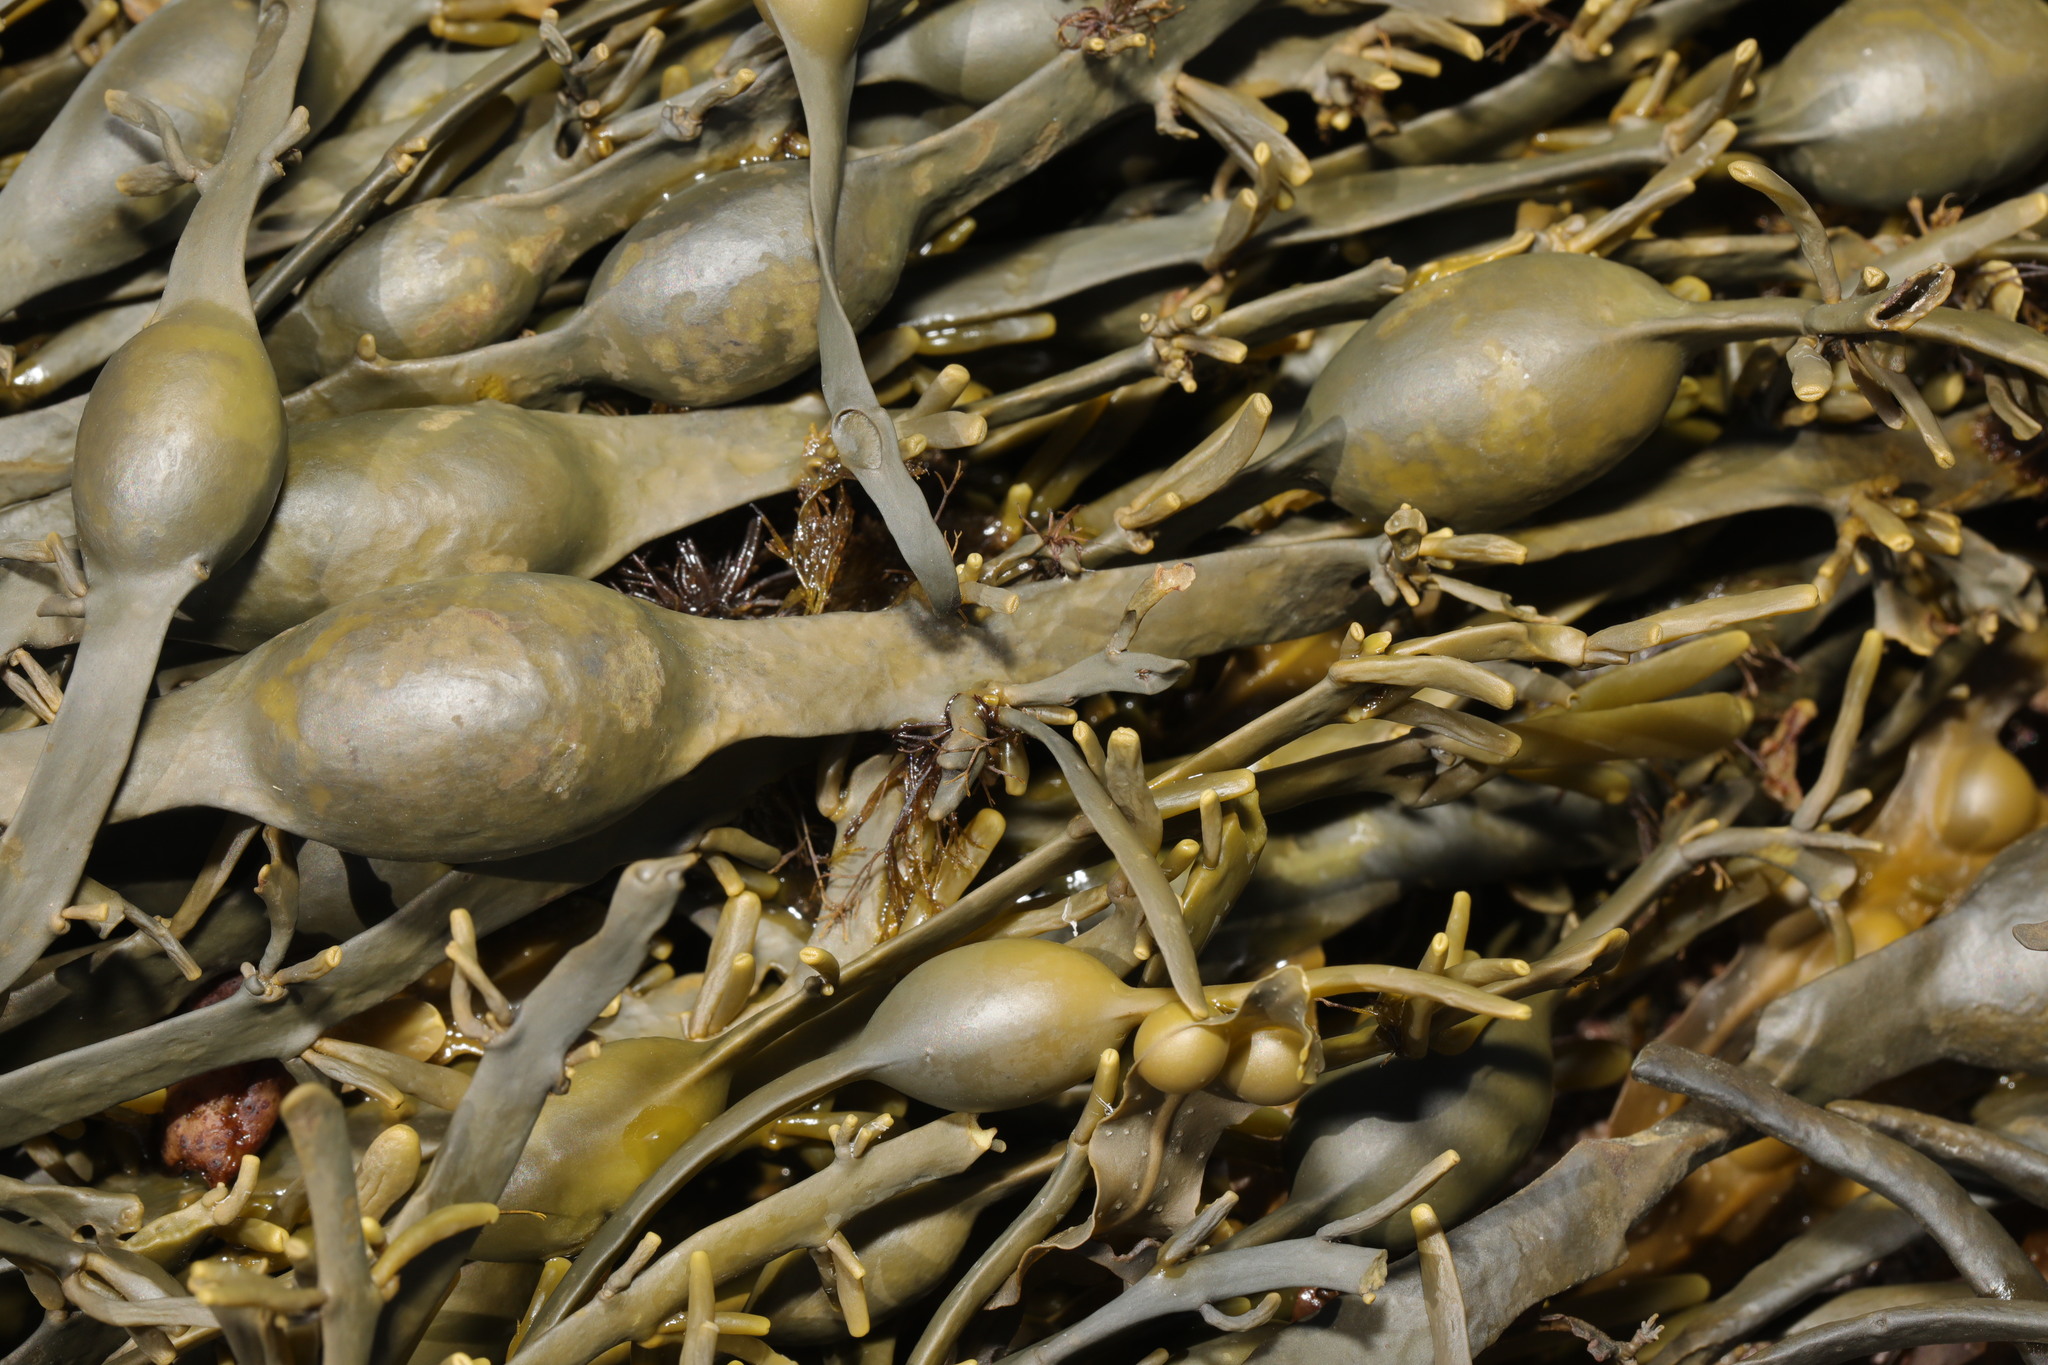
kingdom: Chromista
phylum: Ochrophyta
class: Phaeophyceae
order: Fucales
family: Fucaceae
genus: Ascophyllum
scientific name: Ascophyllum nodosum
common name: Knotted wrack
